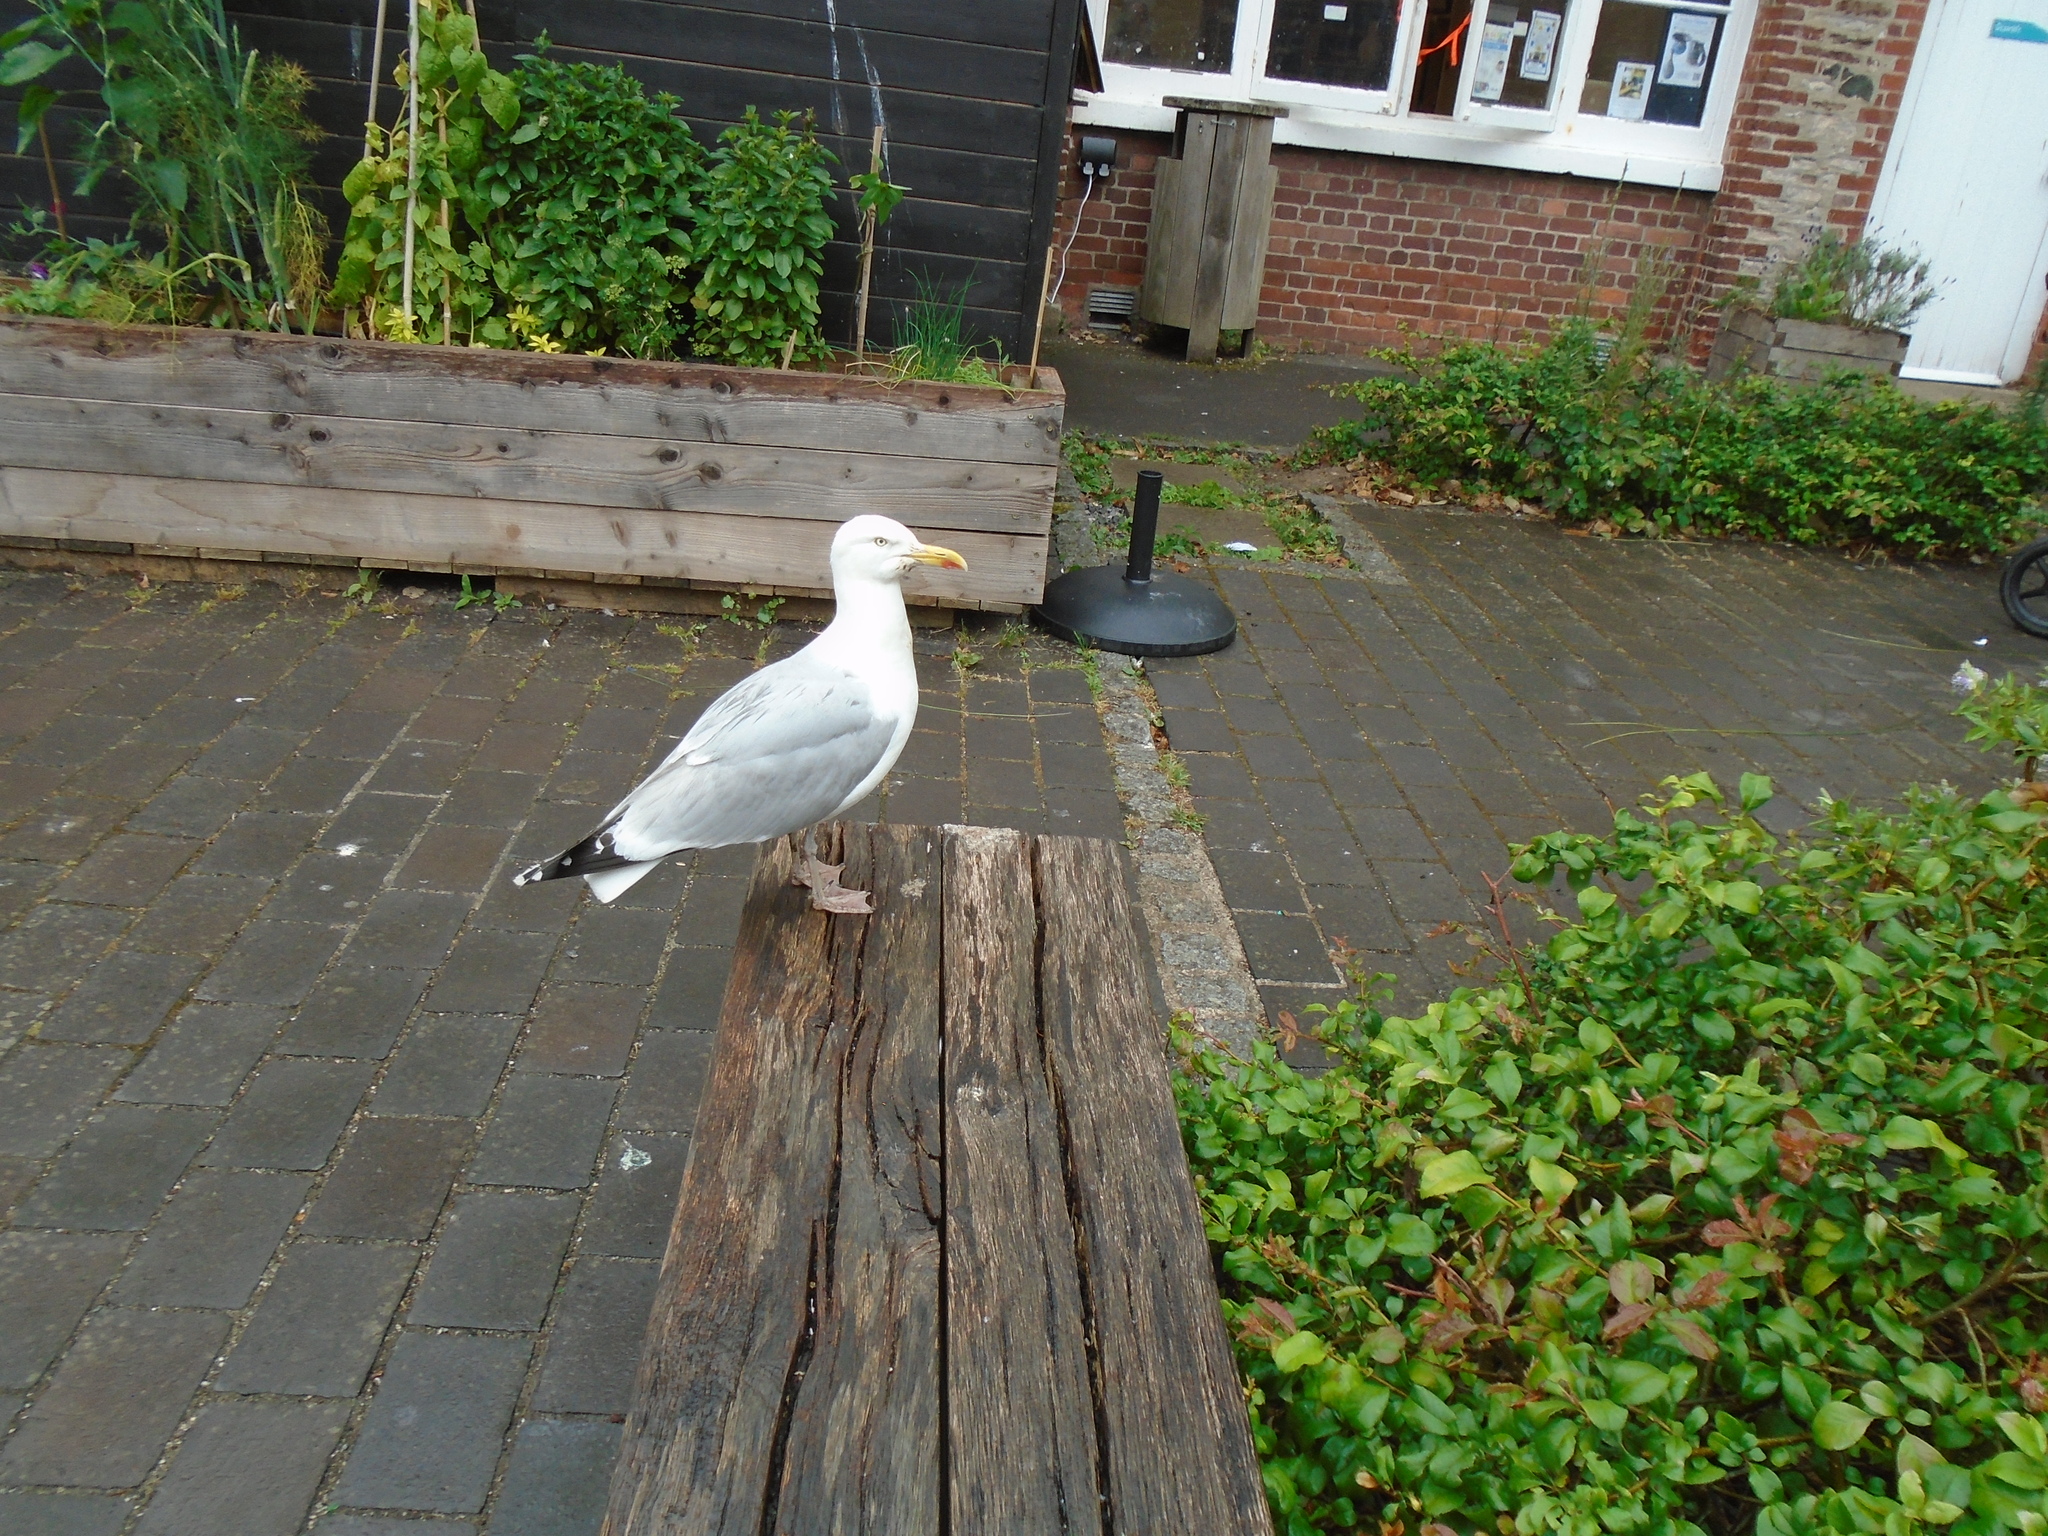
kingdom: Animalia
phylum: Chordata
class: Aves
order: Charadriiformes
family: Laridae
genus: Larus
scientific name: Larus argentatus
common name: Herring gull
